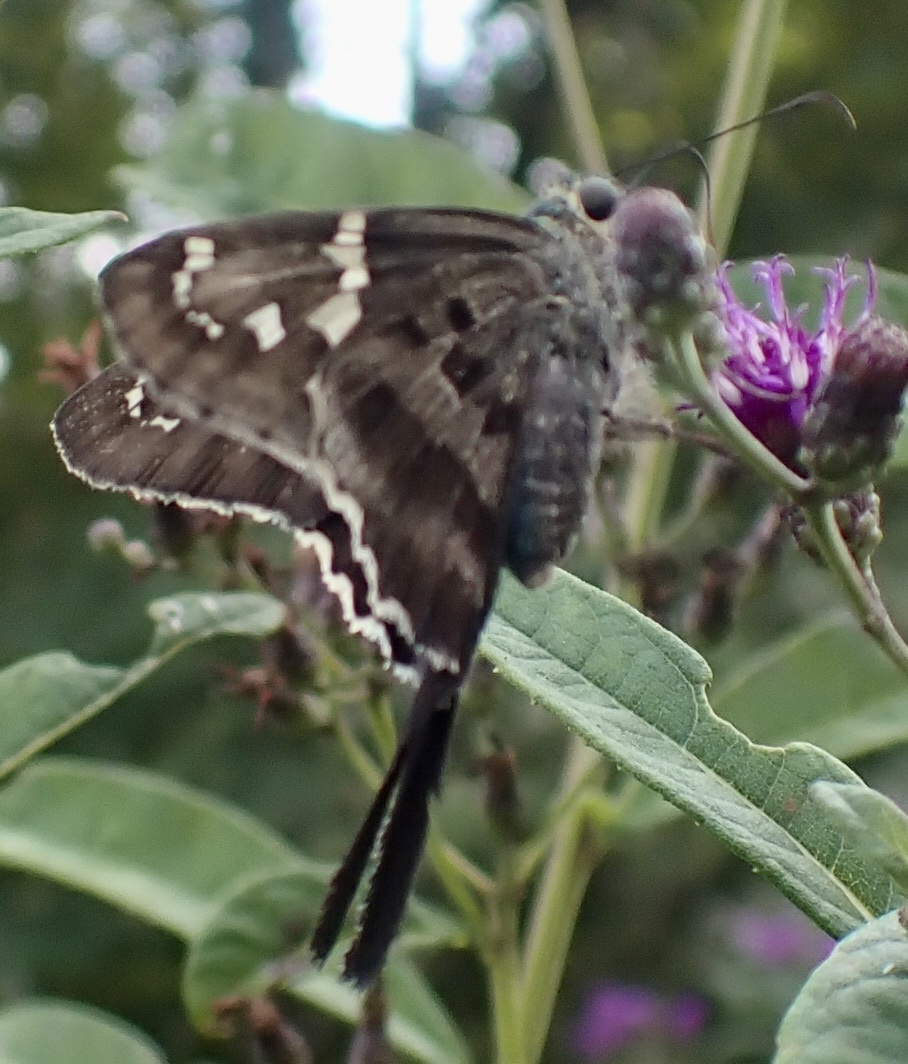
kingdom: Animalia
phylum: Arthropoda
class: Insecta
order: Lepidoptera
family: Hesperiidae
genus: Urbanus
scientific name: Urbanus proteus
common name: Long-tailed skipper
